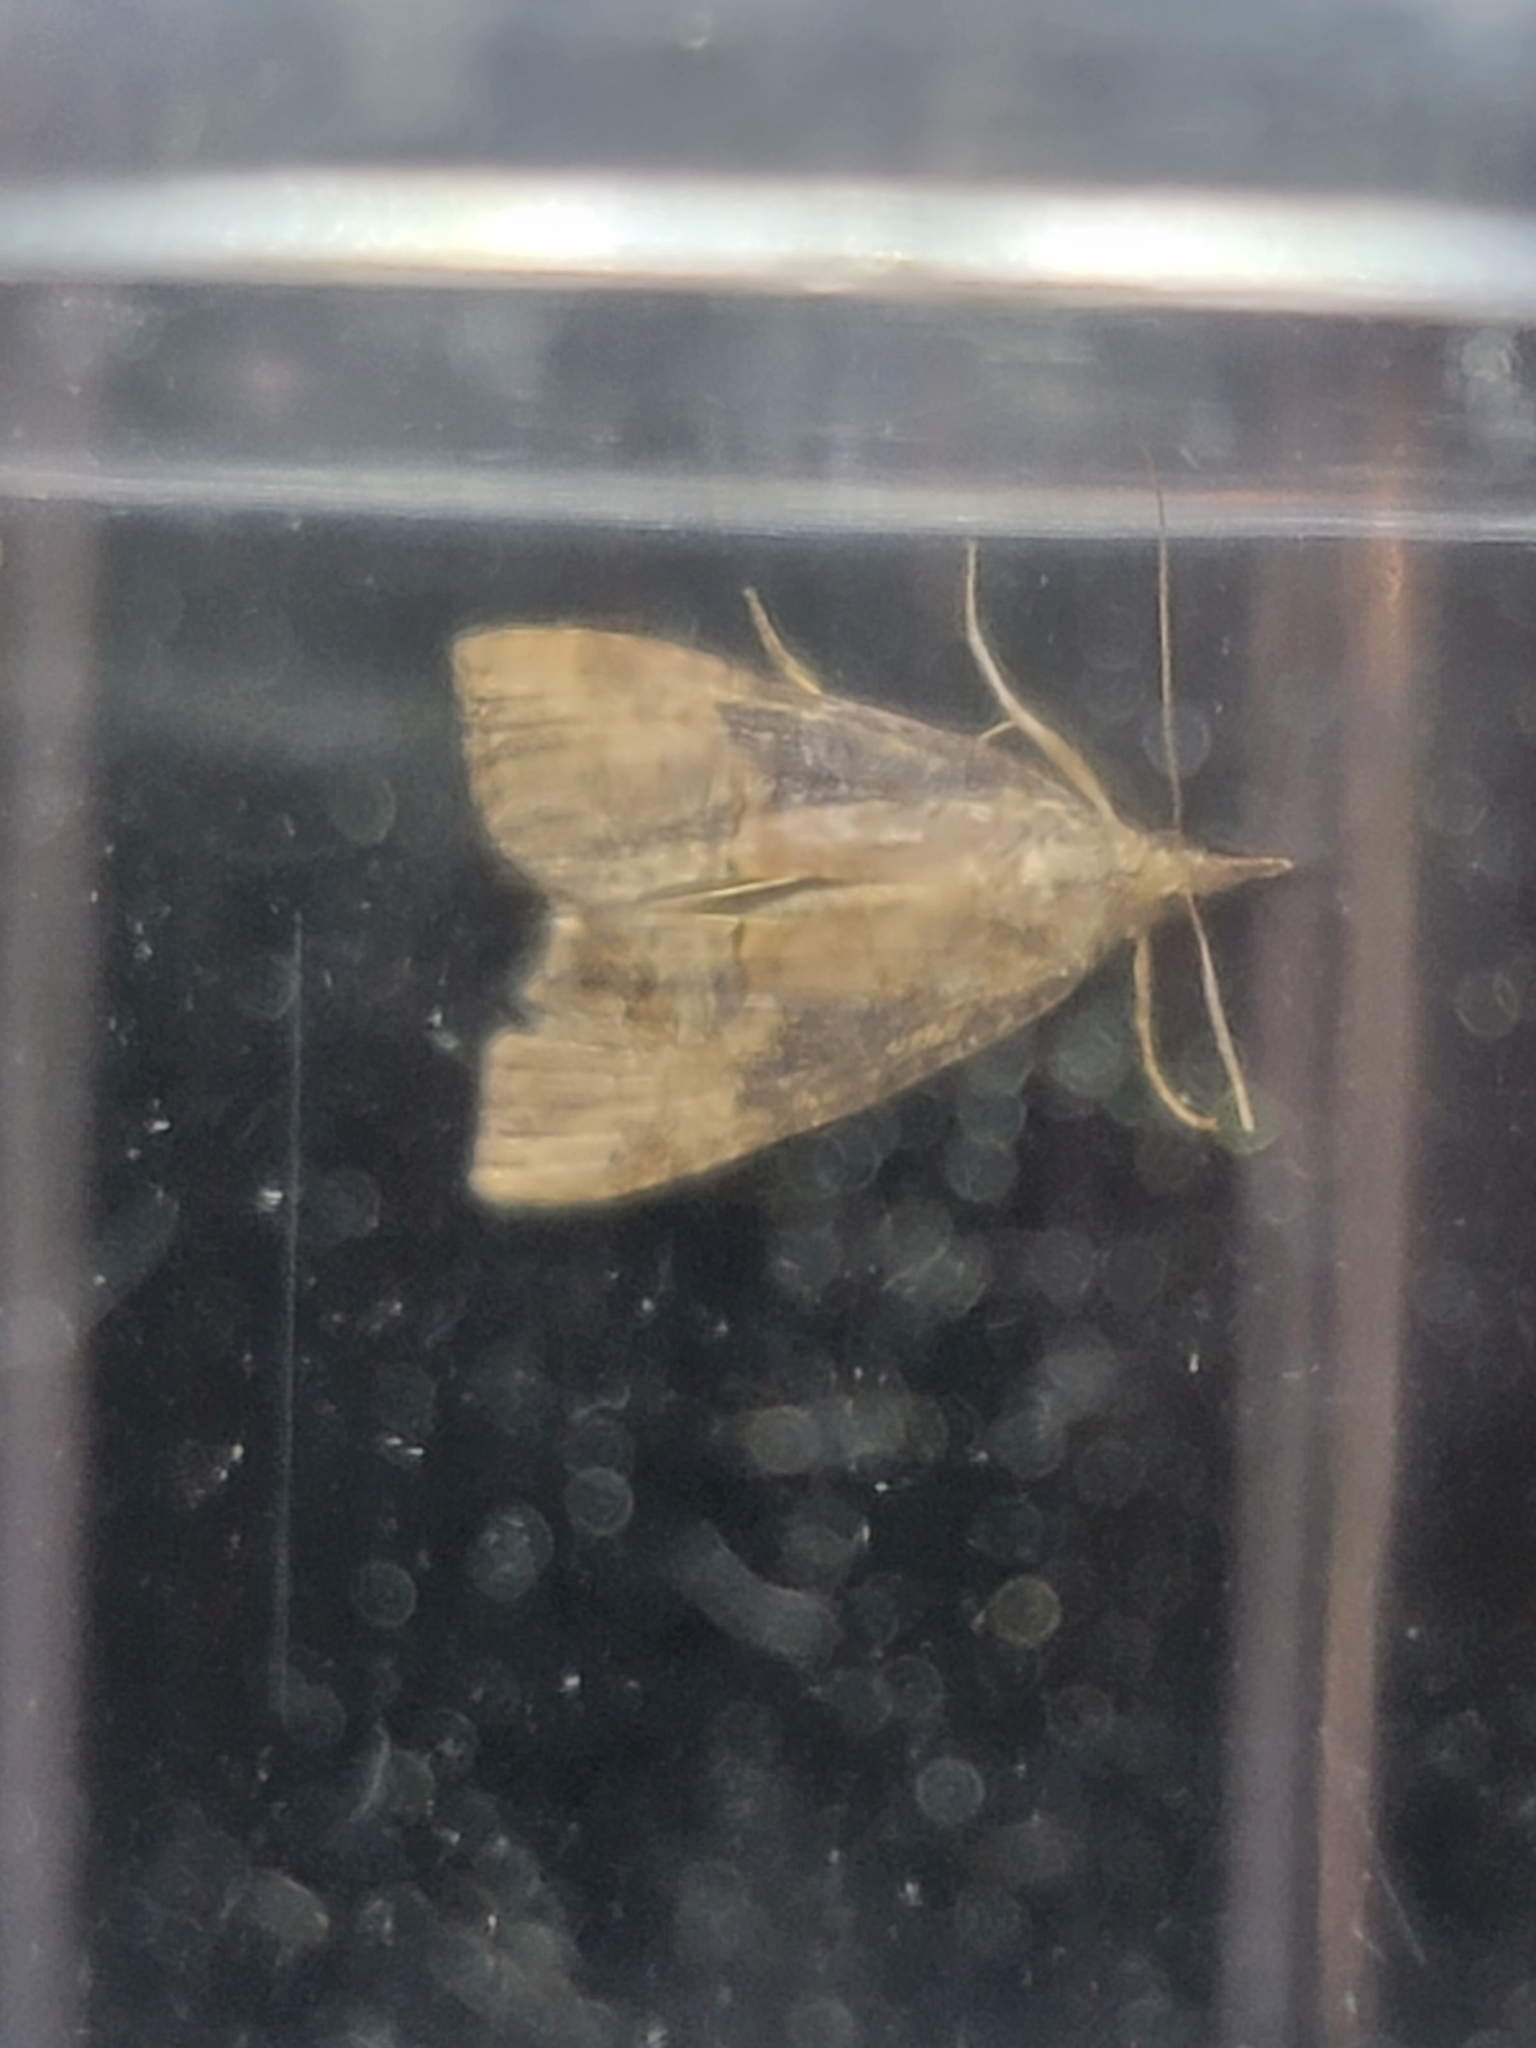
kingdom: Animalia
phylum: Arthropoda
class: Insecta
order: Lepidoptera
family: Erebidae
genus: Hypena
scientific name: Hypena scabra
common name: Green cloverworm
